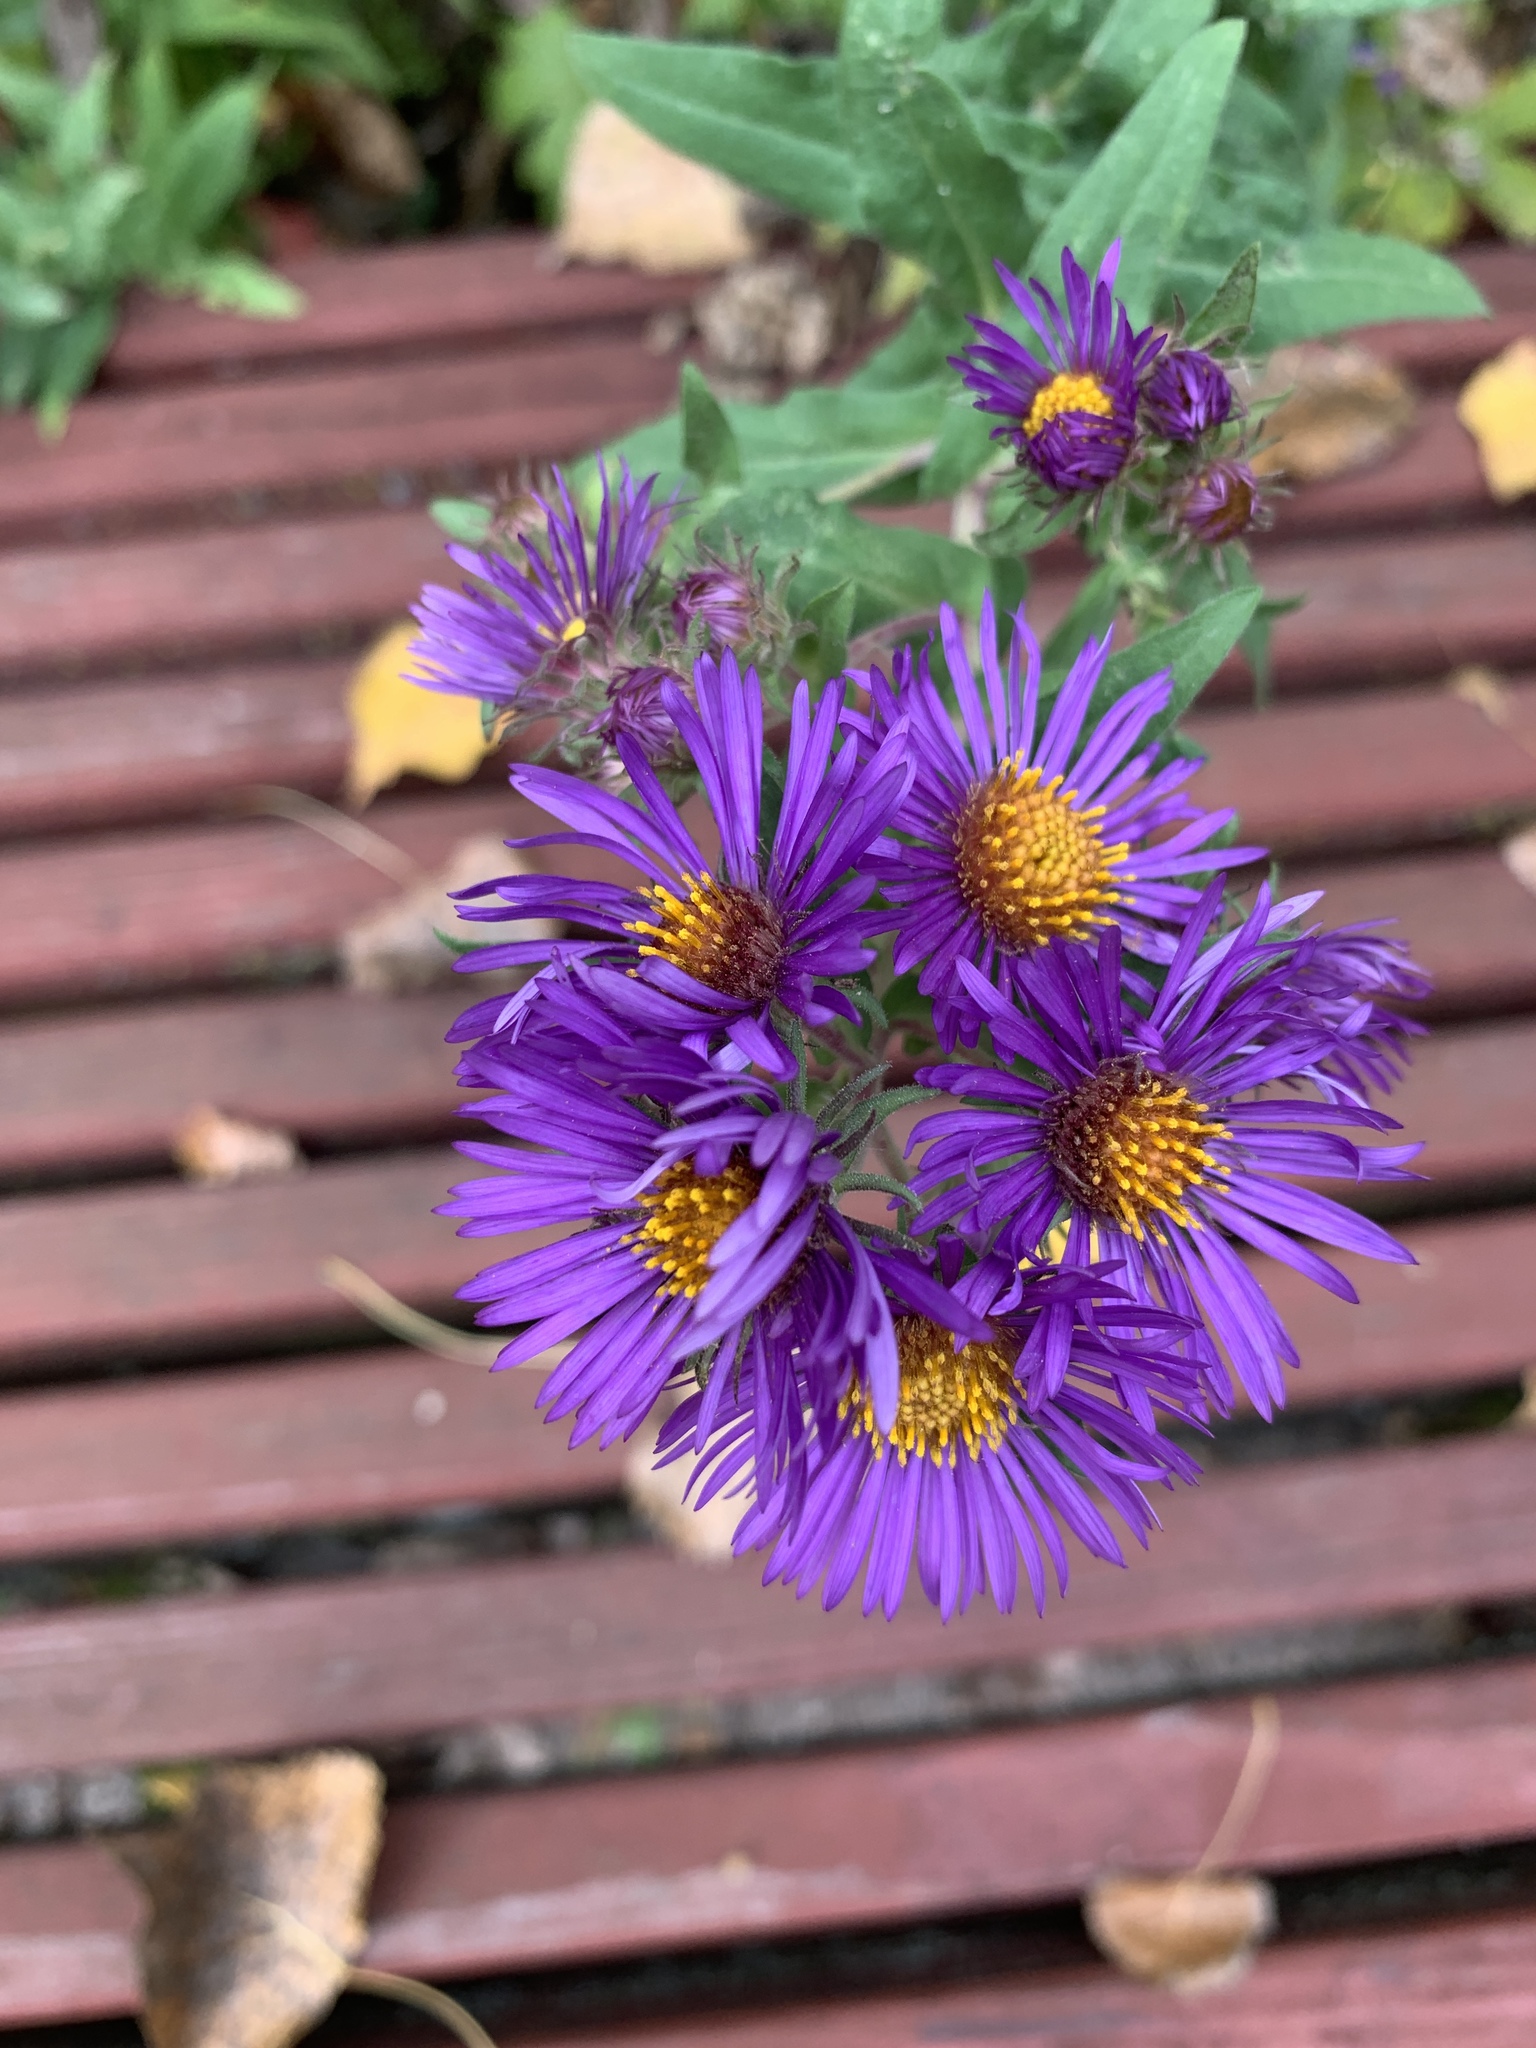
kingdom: Plantae
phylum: Tracheophyta
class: Magnoliopsida
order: Asterales
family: Asteraceae
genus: Symphyotrichum
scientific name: Symphyotrichum novae-angliae
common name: Michaelmas daisy
